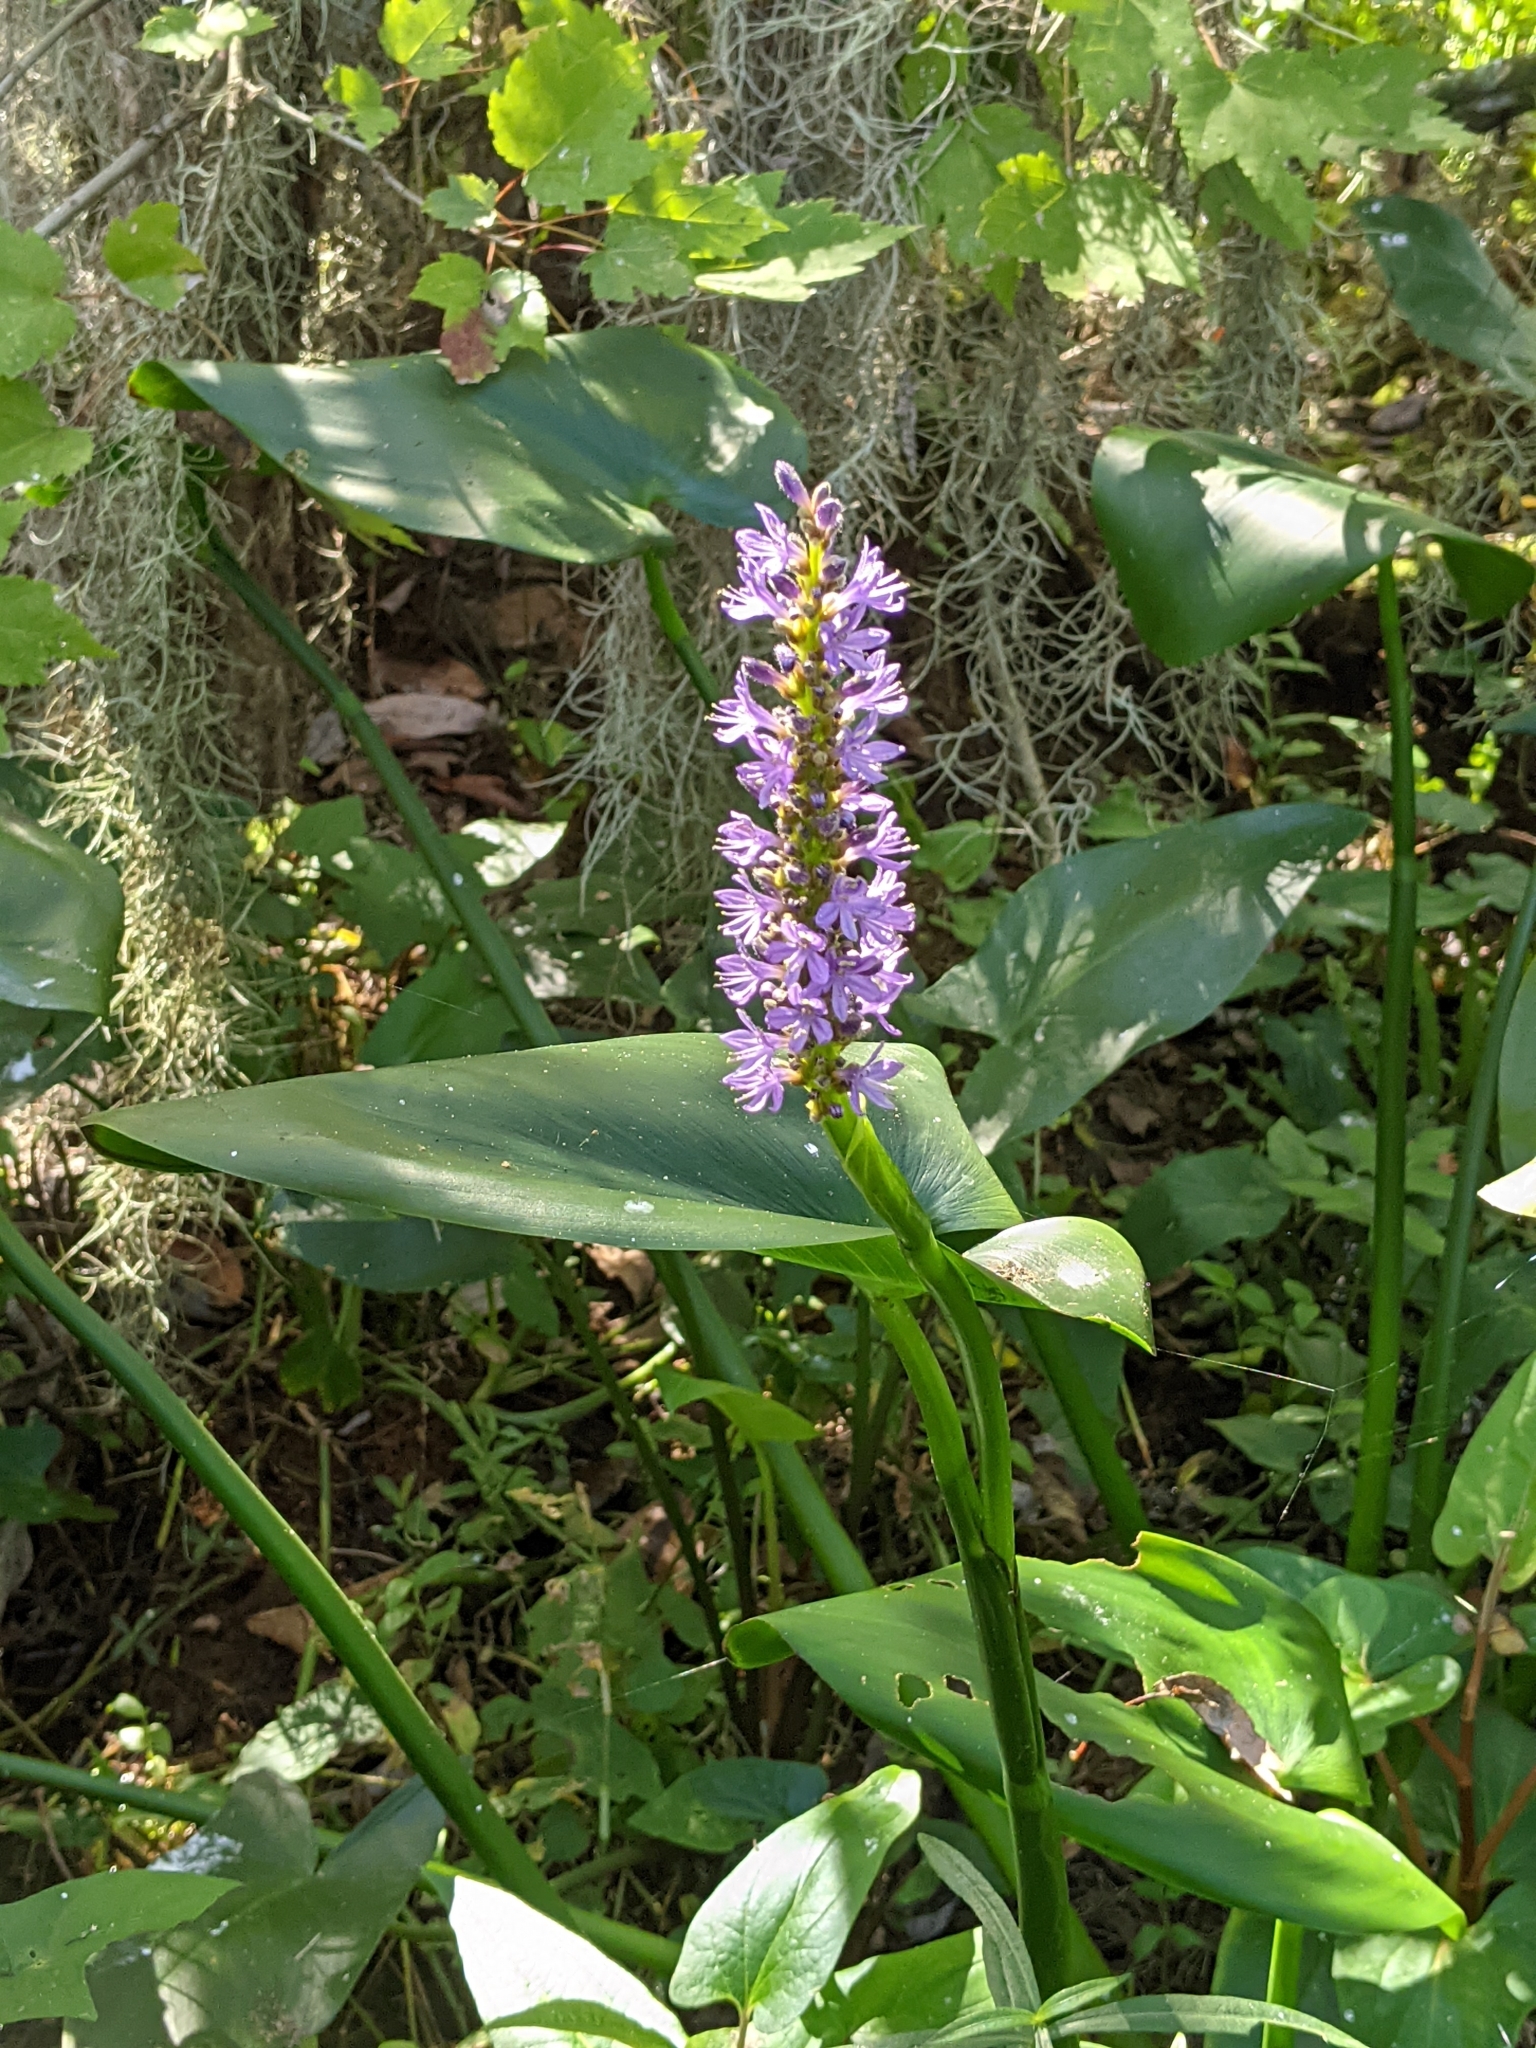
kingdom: Plantae
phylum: Tracheophyta
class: Liliopsida
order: Commelinales
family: Pontederiaceae
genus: Pontederia
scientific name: Pontederia cordata
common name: Pickerelweed
